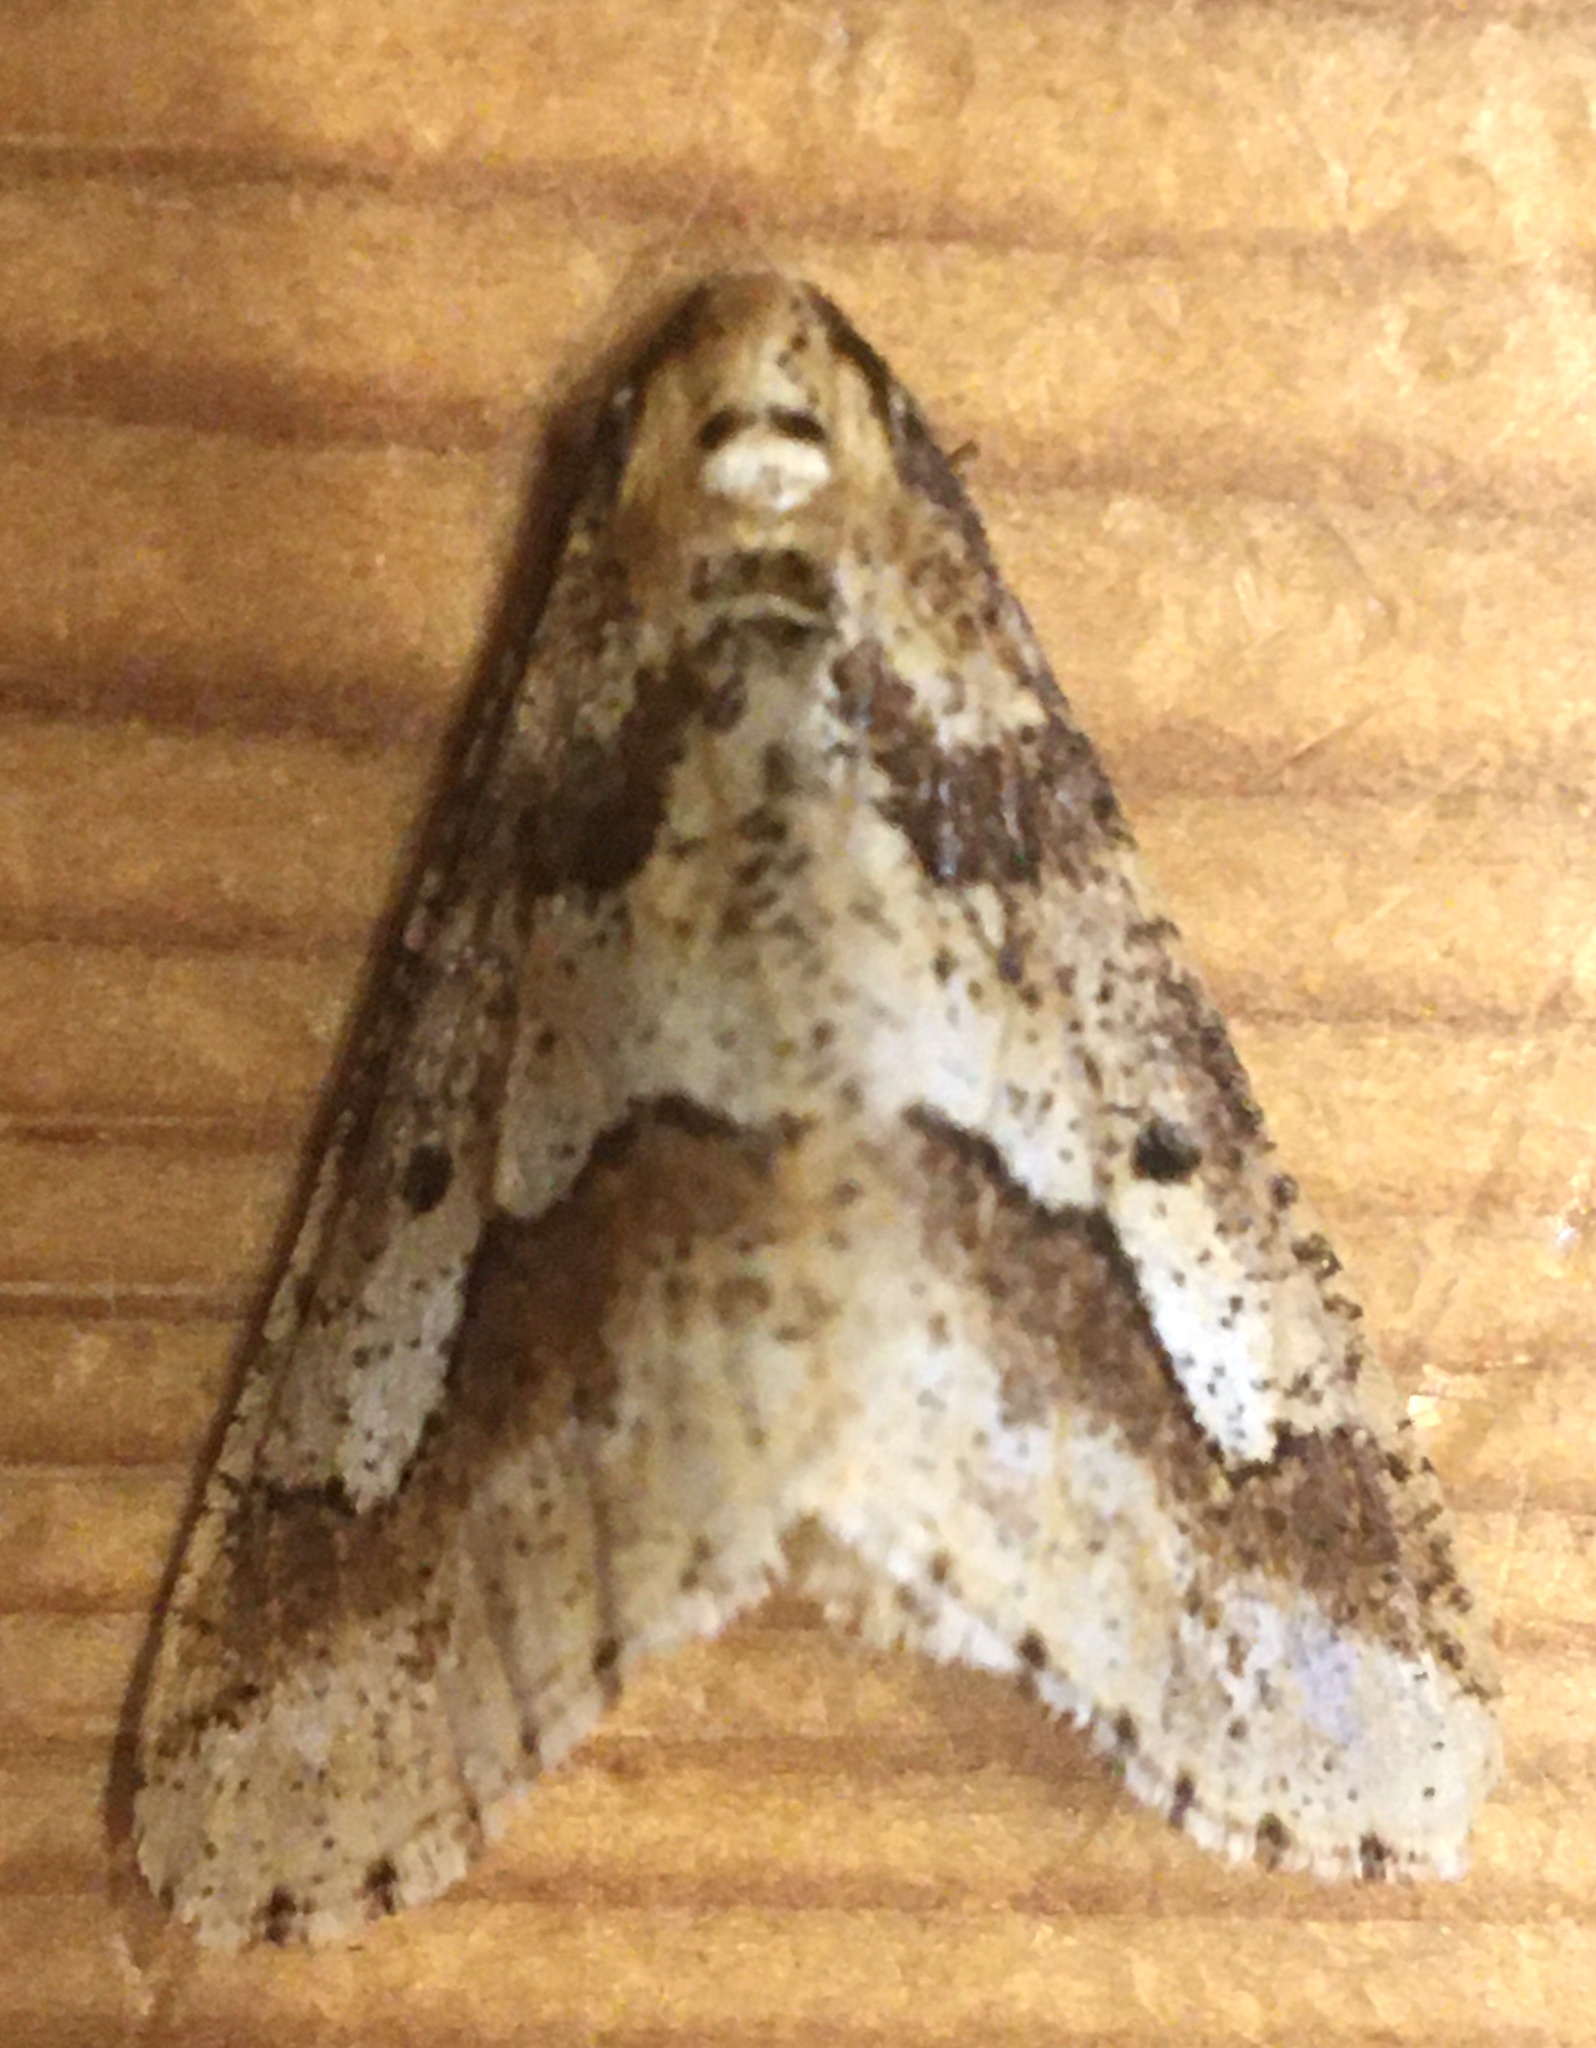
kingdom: Animalia
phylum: Arthropoda
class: Insecta
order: Lepidoptera
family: Geometridae
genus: Erannis
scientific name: Erannis defoliaria
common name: Mottled umber
